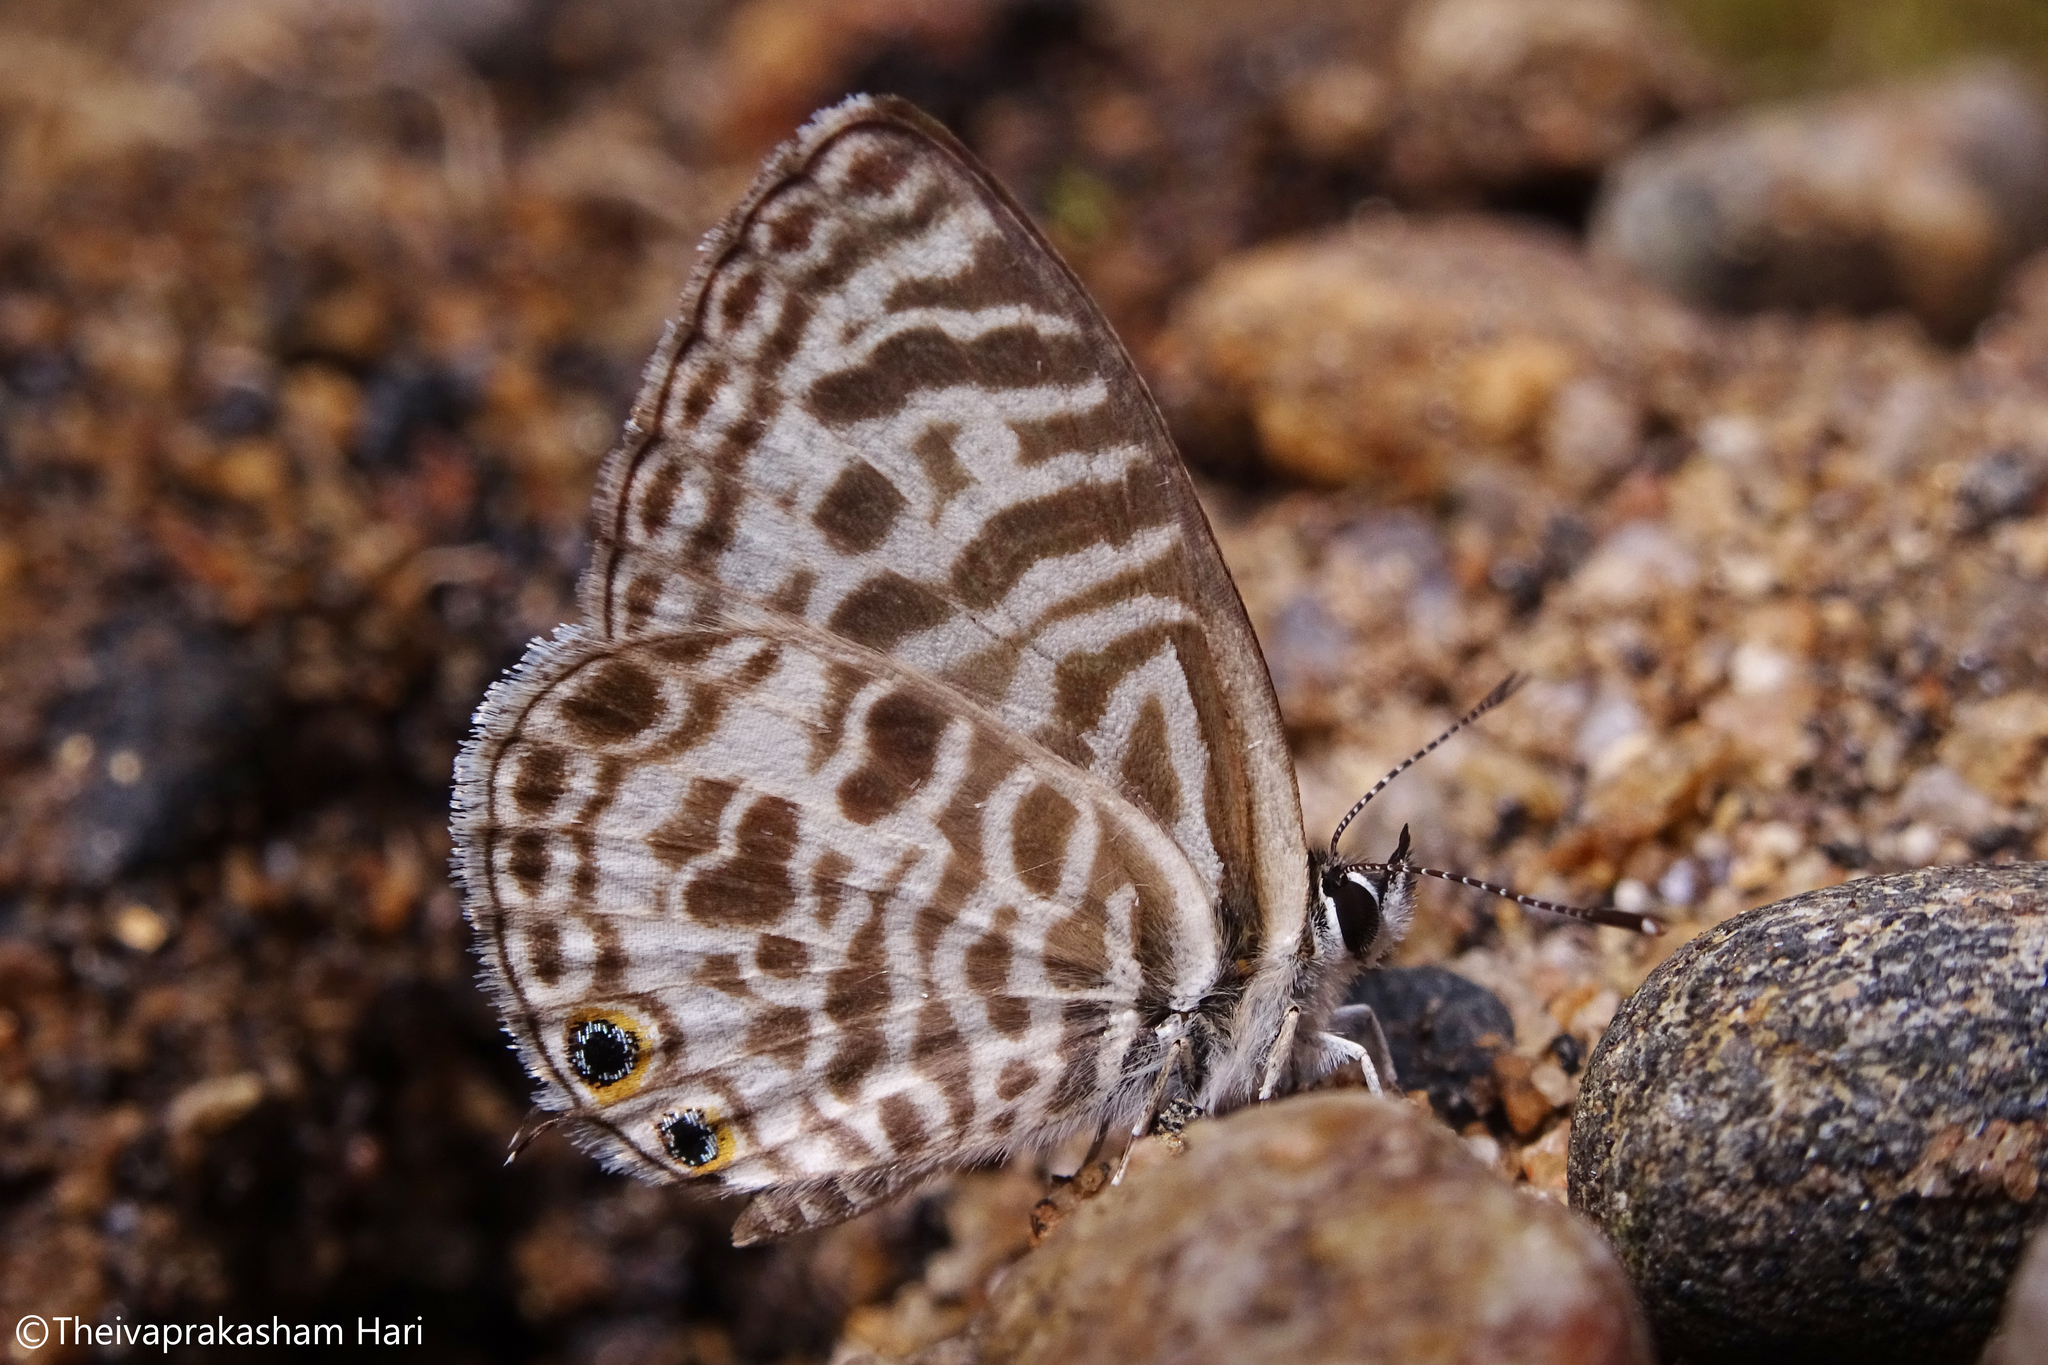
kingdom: Animalia
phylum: Arthropoda
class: Insecta
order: Lepidoptera
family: Lycaenidae
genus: Leptotes
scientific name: Leptotes plinius
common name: Zebra blue
